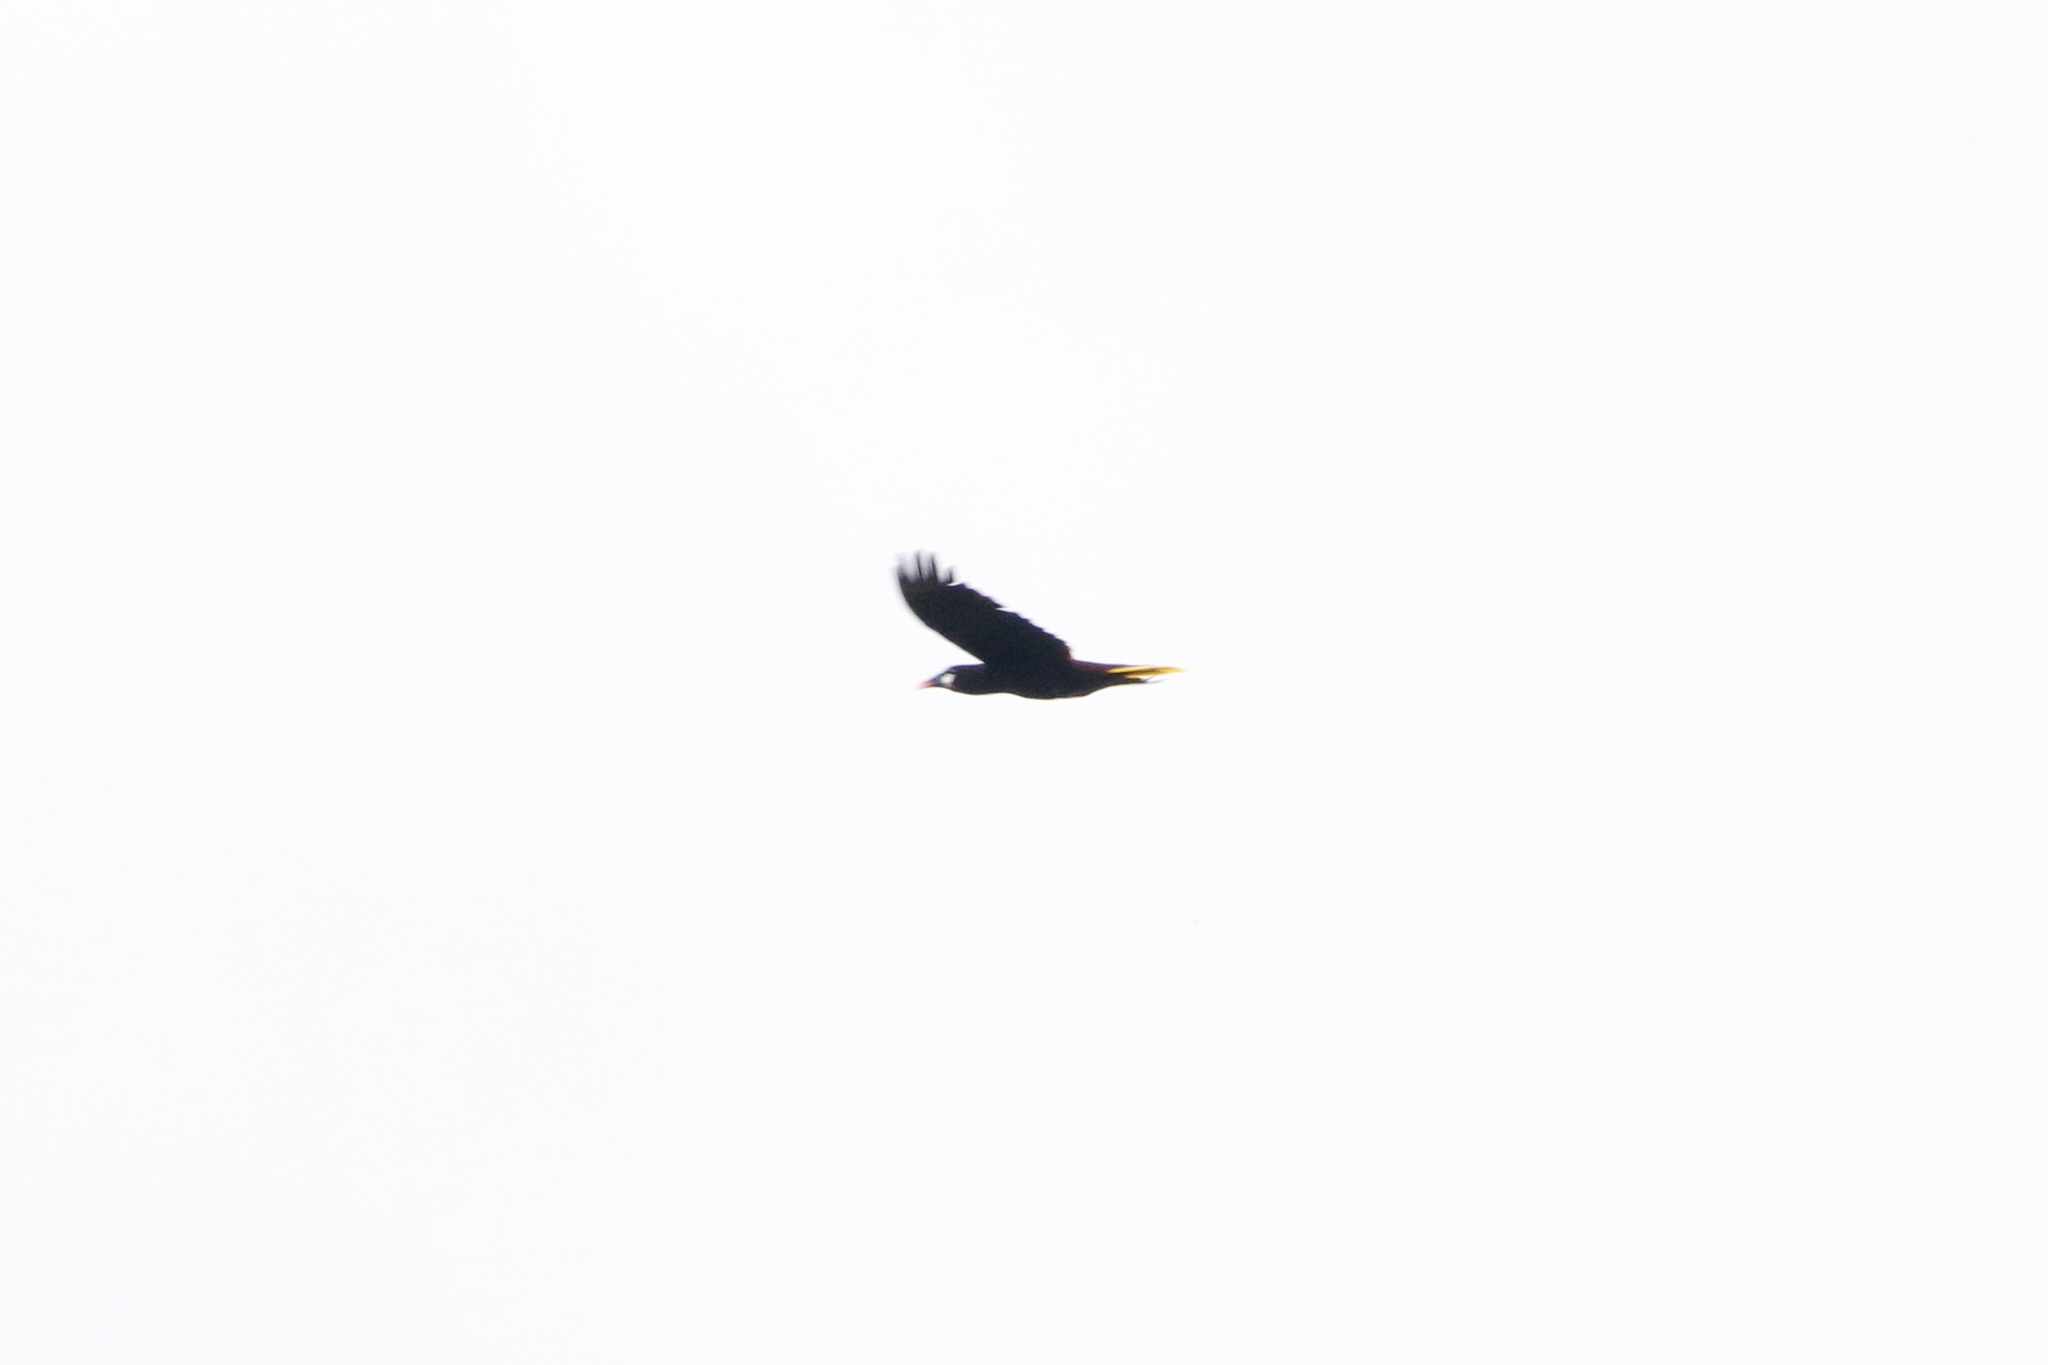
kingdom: Animalia
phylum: Chordata
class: Aves
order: Passeriformes
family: Icteridae
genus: Psarocolius
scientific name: Psarocolius montezuma
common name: Montezuma oropendola
